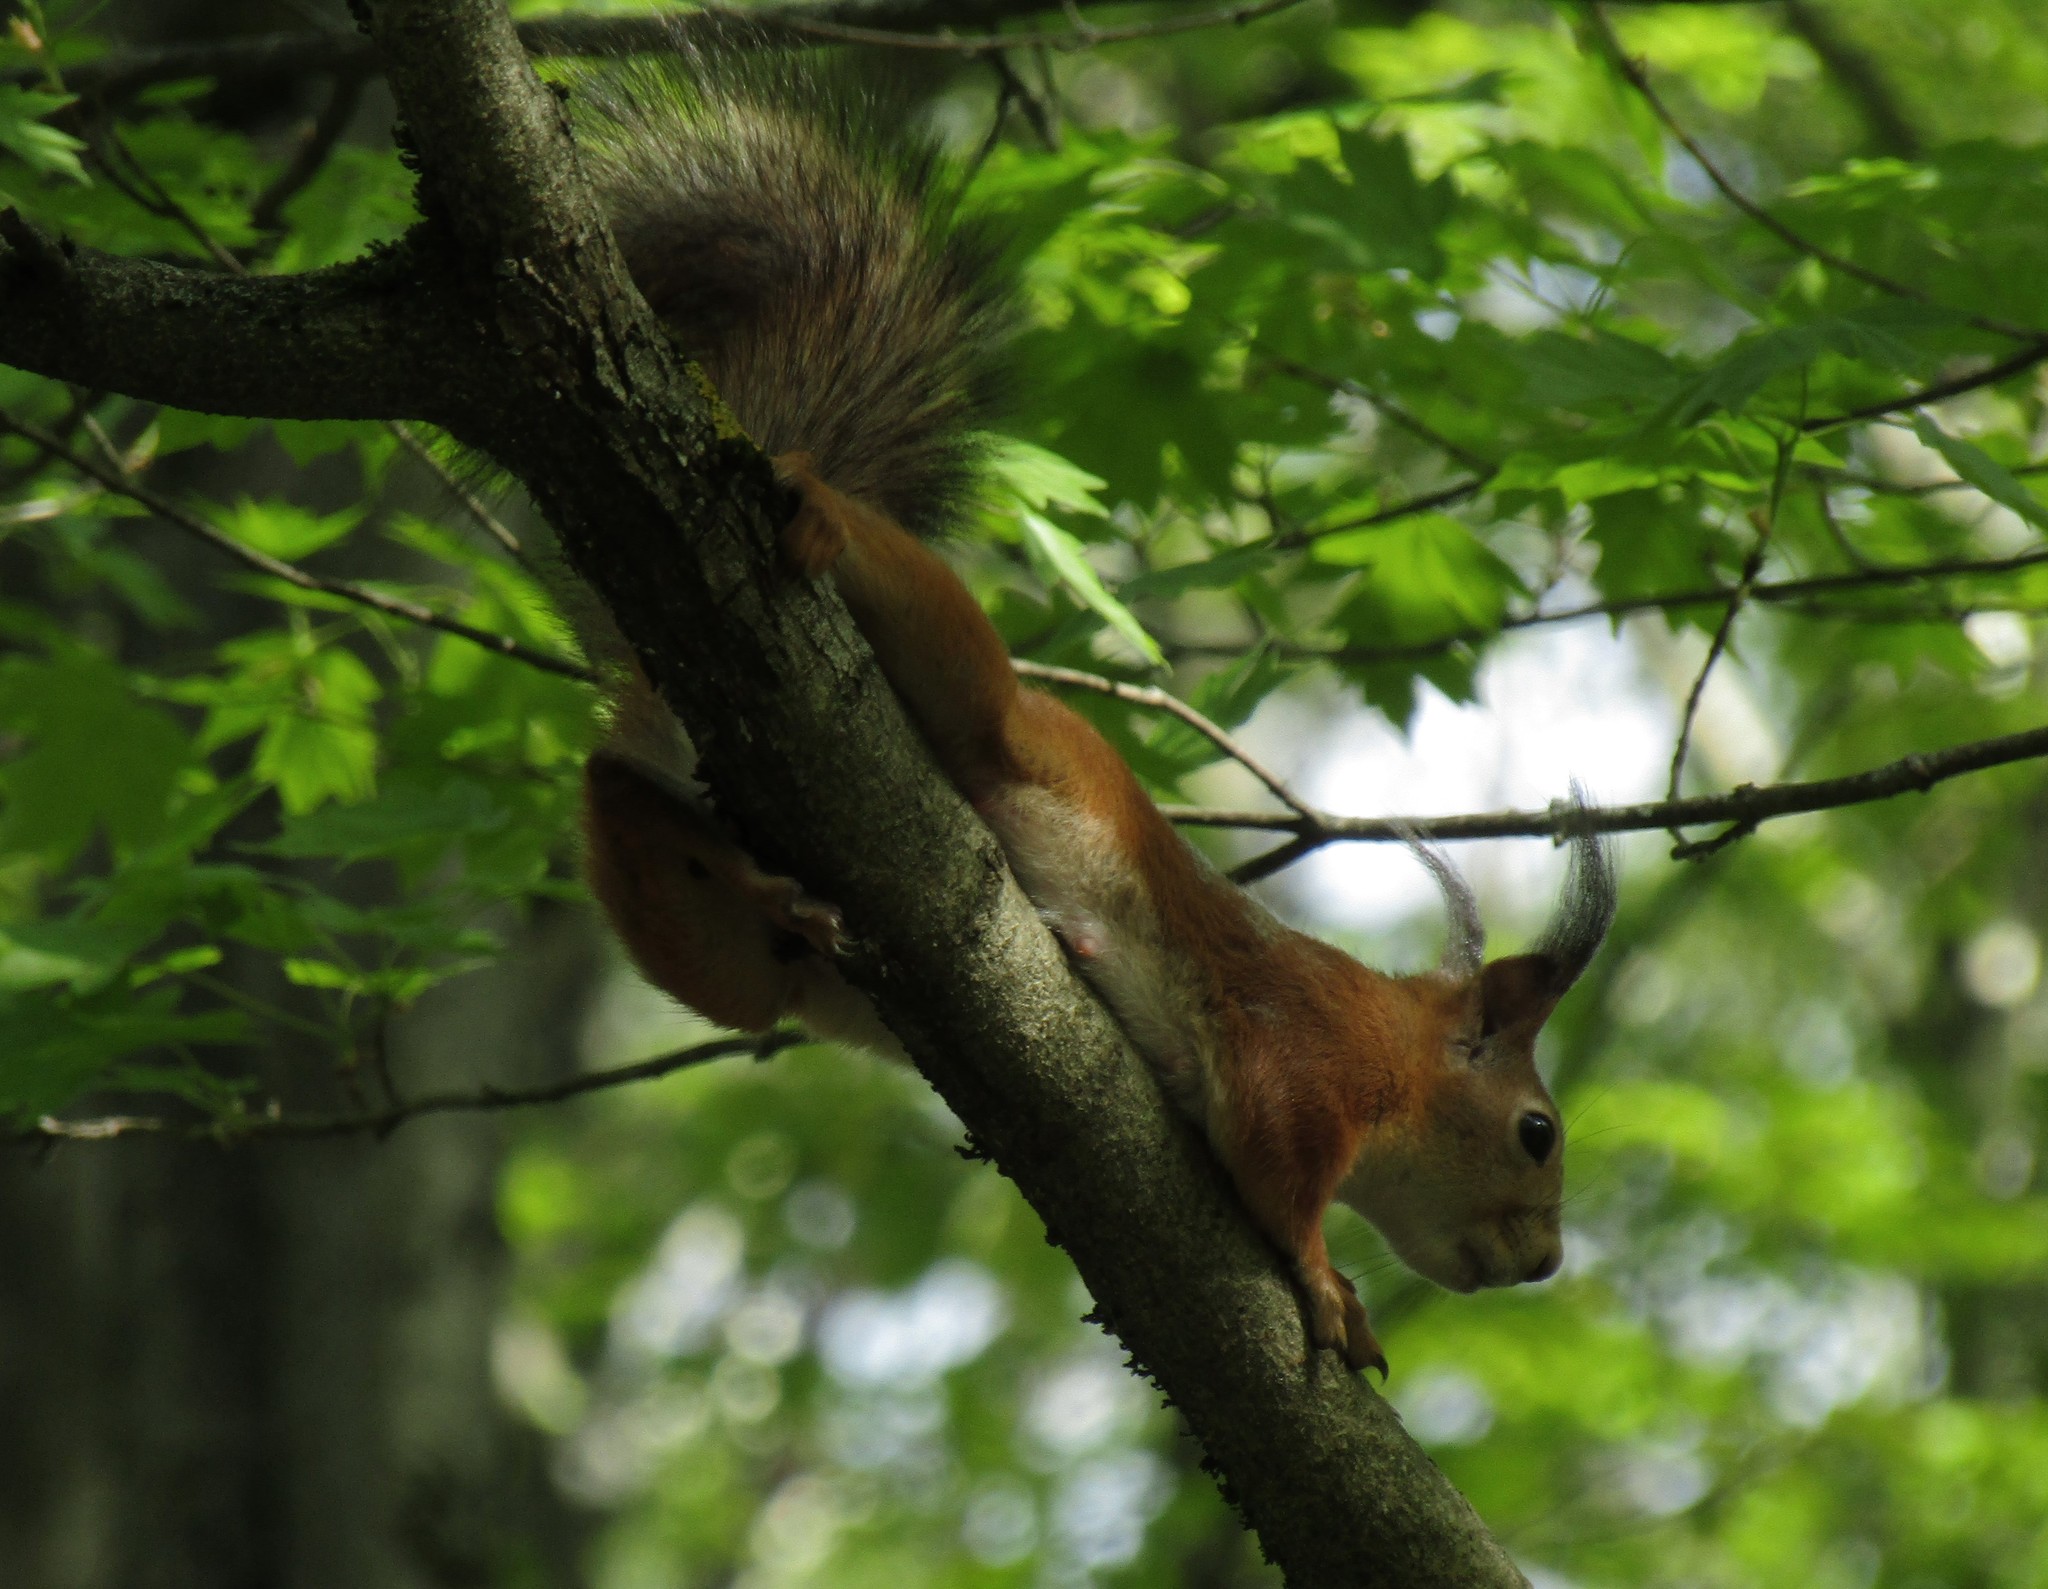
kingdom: Animalia
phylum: Chordata
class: Mammalia
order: Rodentia
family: Sciuridae
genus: Sciurus
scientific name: Sciurus vulgaris
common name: Eurasian red squirrel
